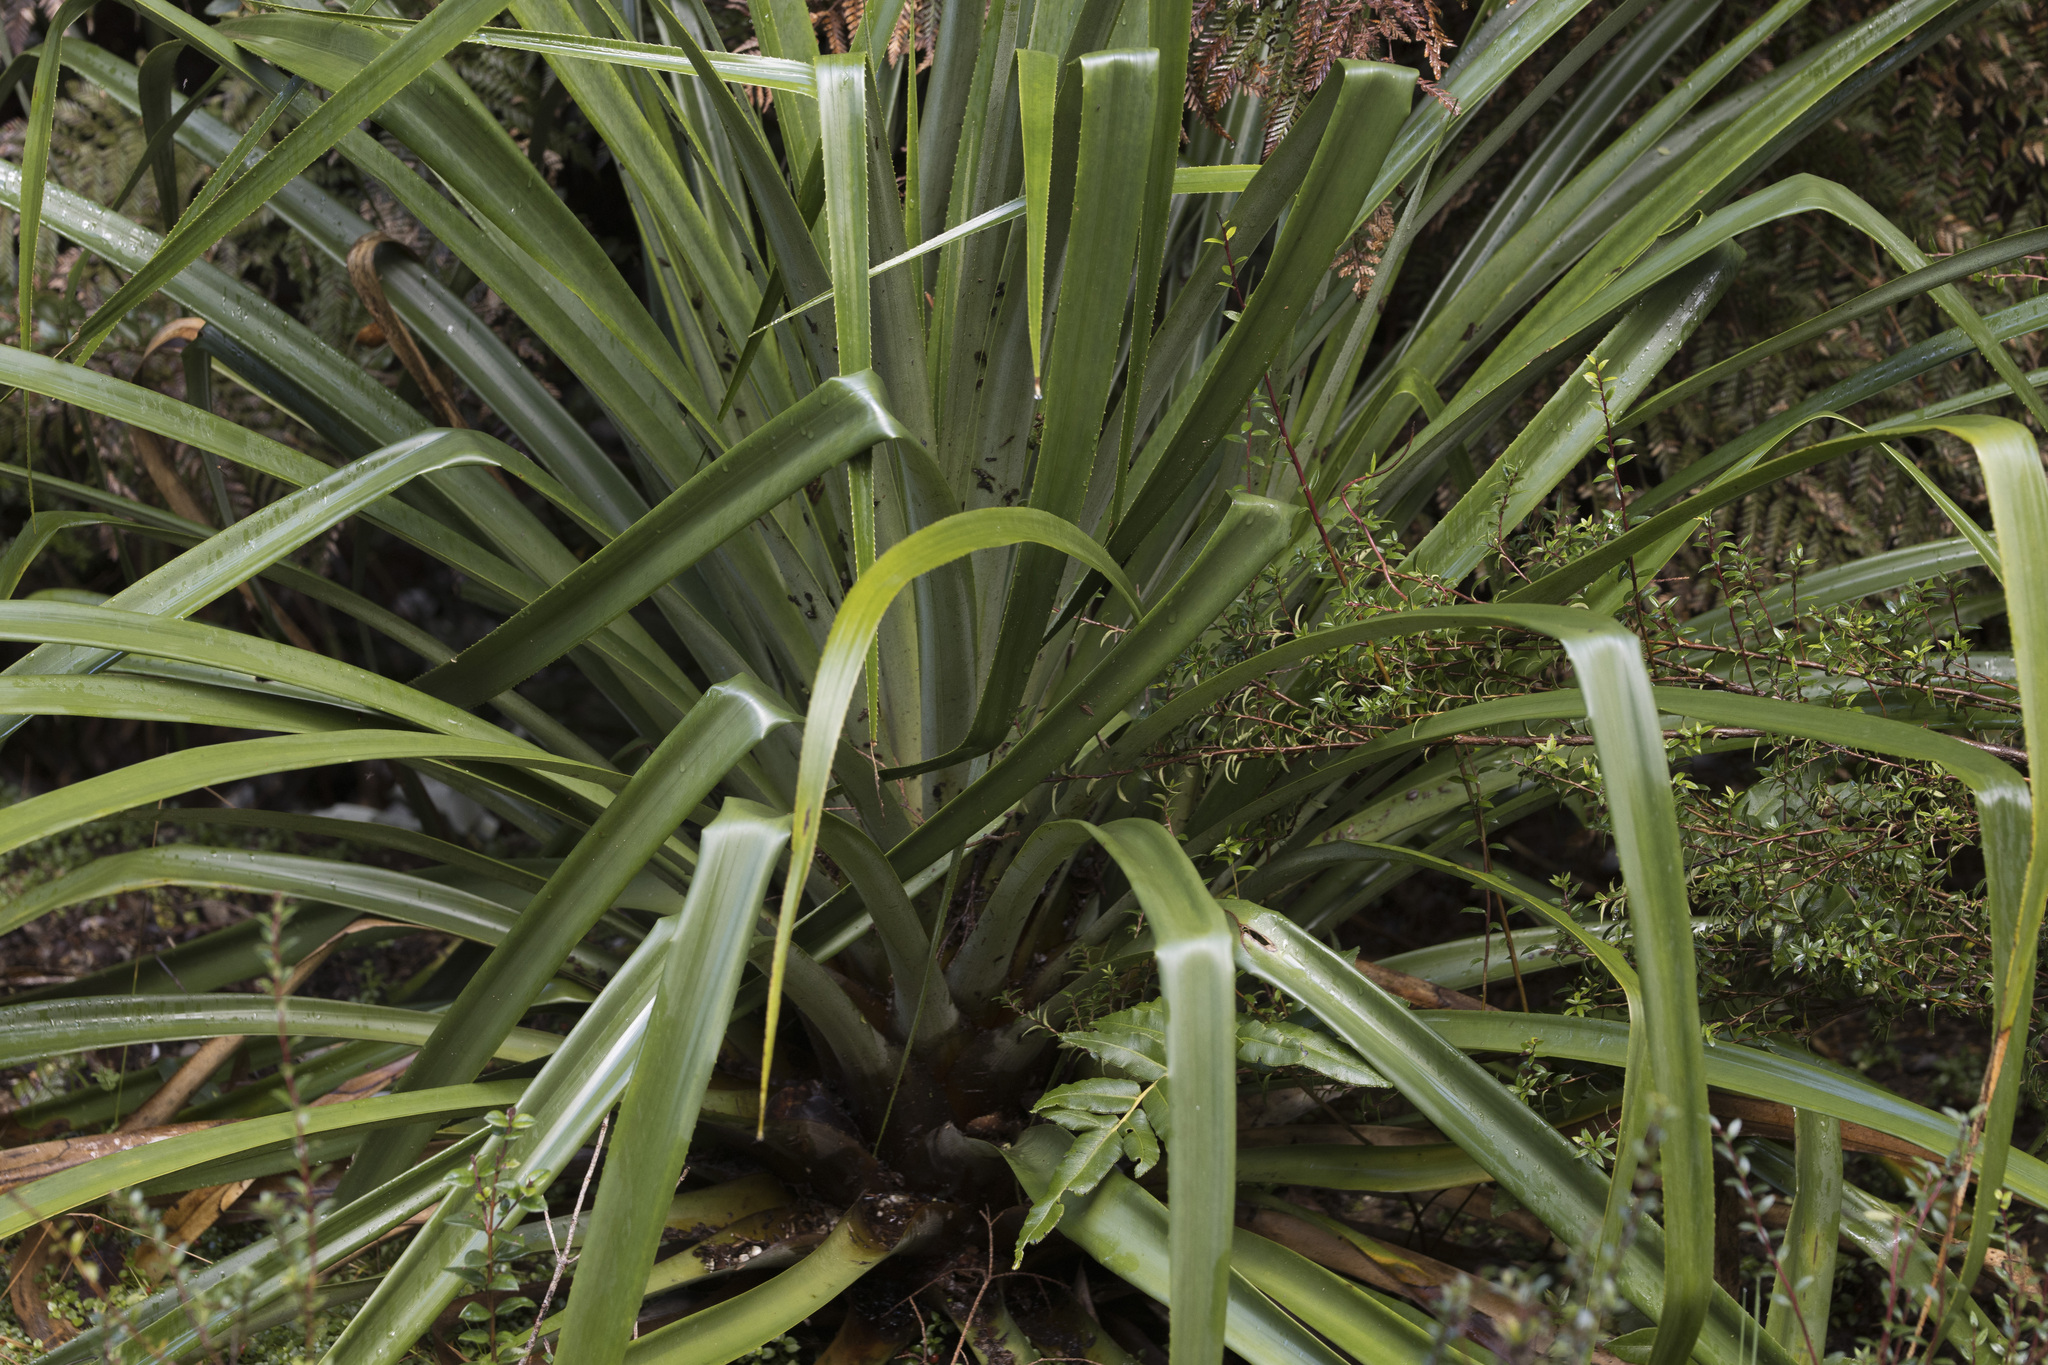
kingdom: Plantae
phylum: Tracheophyta
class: Liliopsida
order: Poales
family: Bromeliaceae
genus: Greigia
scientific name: Greigia landbeckii
